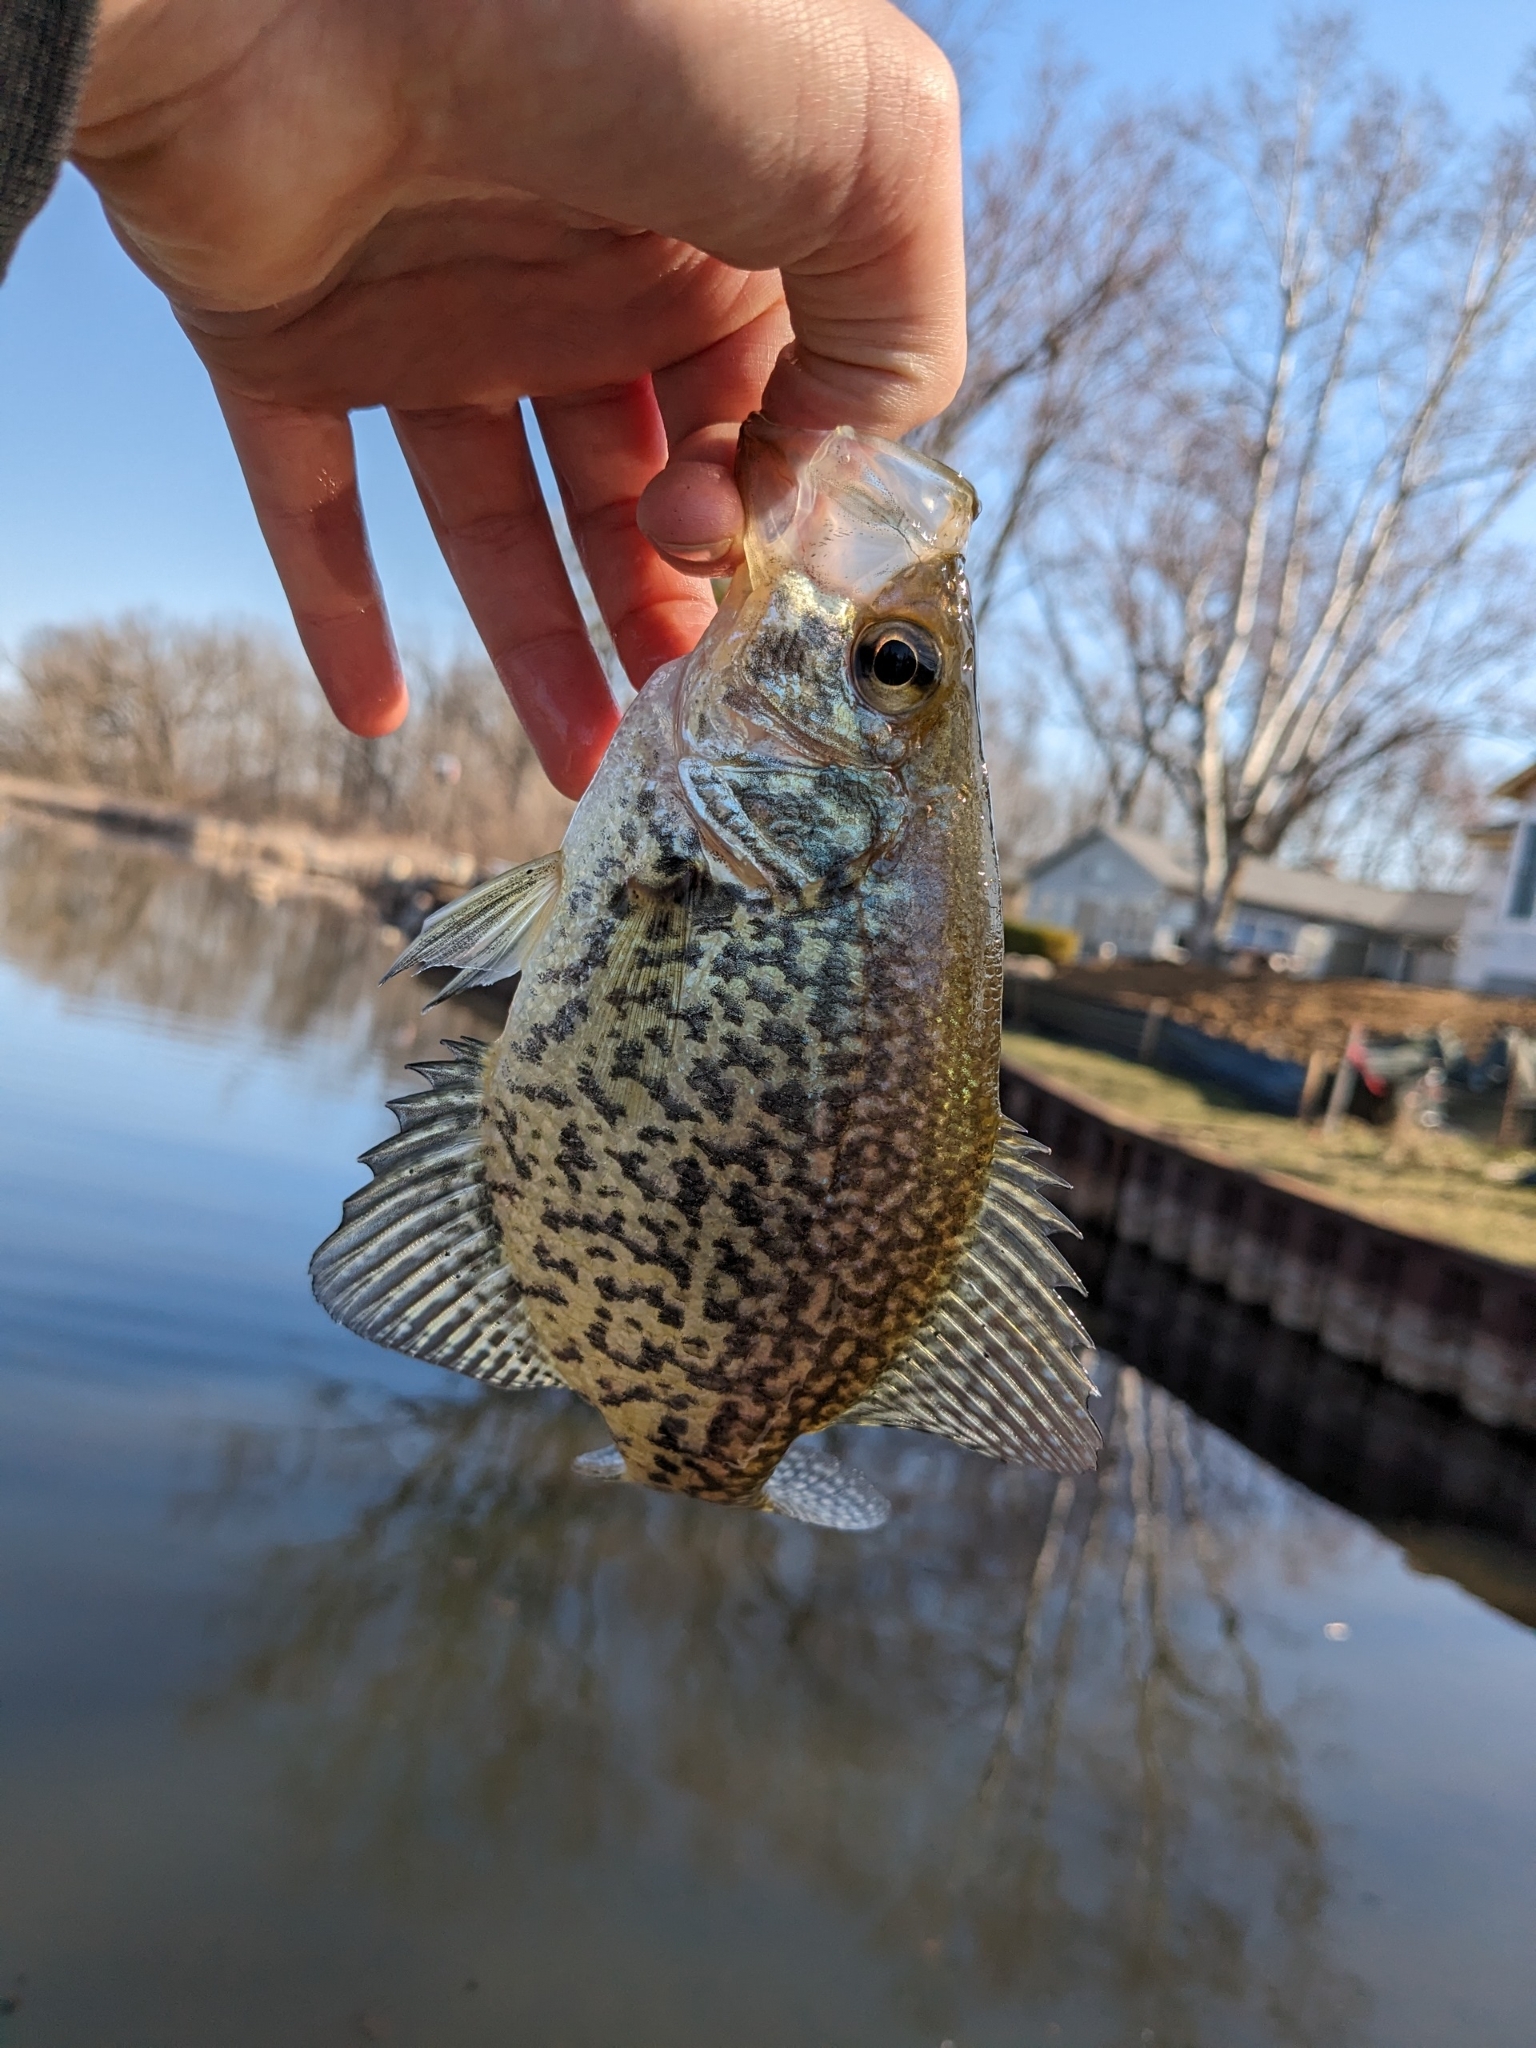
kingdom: Animalia
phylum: Chordata
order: Perciformes
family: Centrarchidae
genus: Pomoxis
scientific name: Pomoxis nigromaculatus
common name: Black crappie
